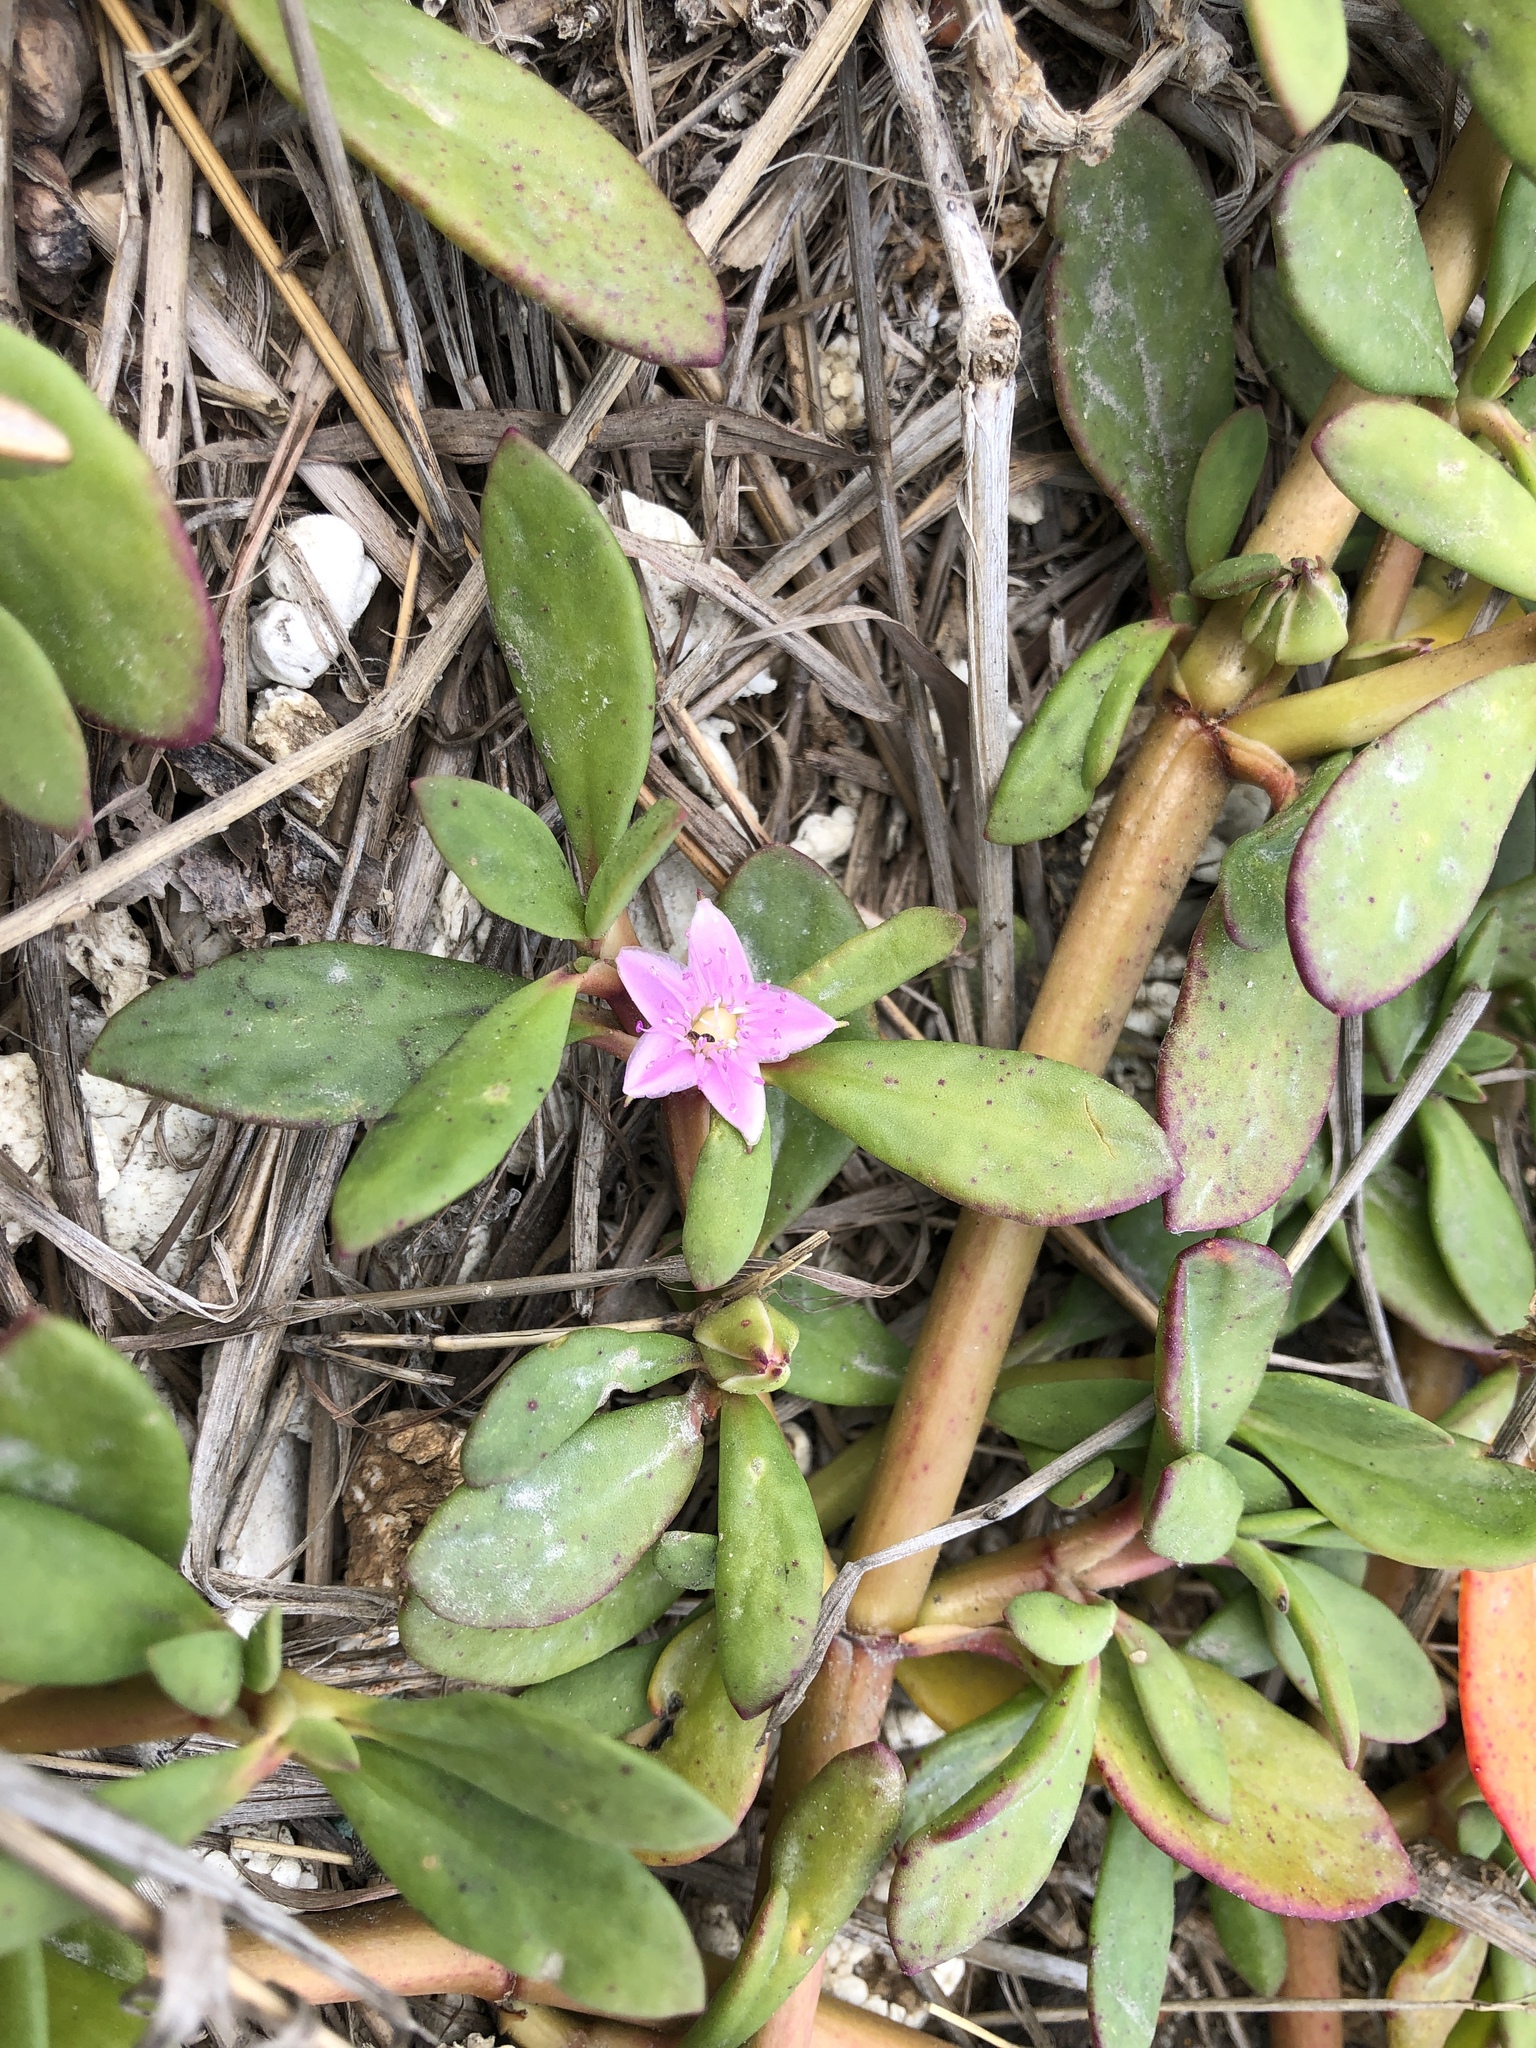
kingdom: Plantae
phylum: Tracheophyta
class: Magnoliopsida
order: Caryophyllales
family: Aizoaceae
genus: Sesuvium
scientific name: Sesuvium portulacastrum
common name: Sea-purslane
